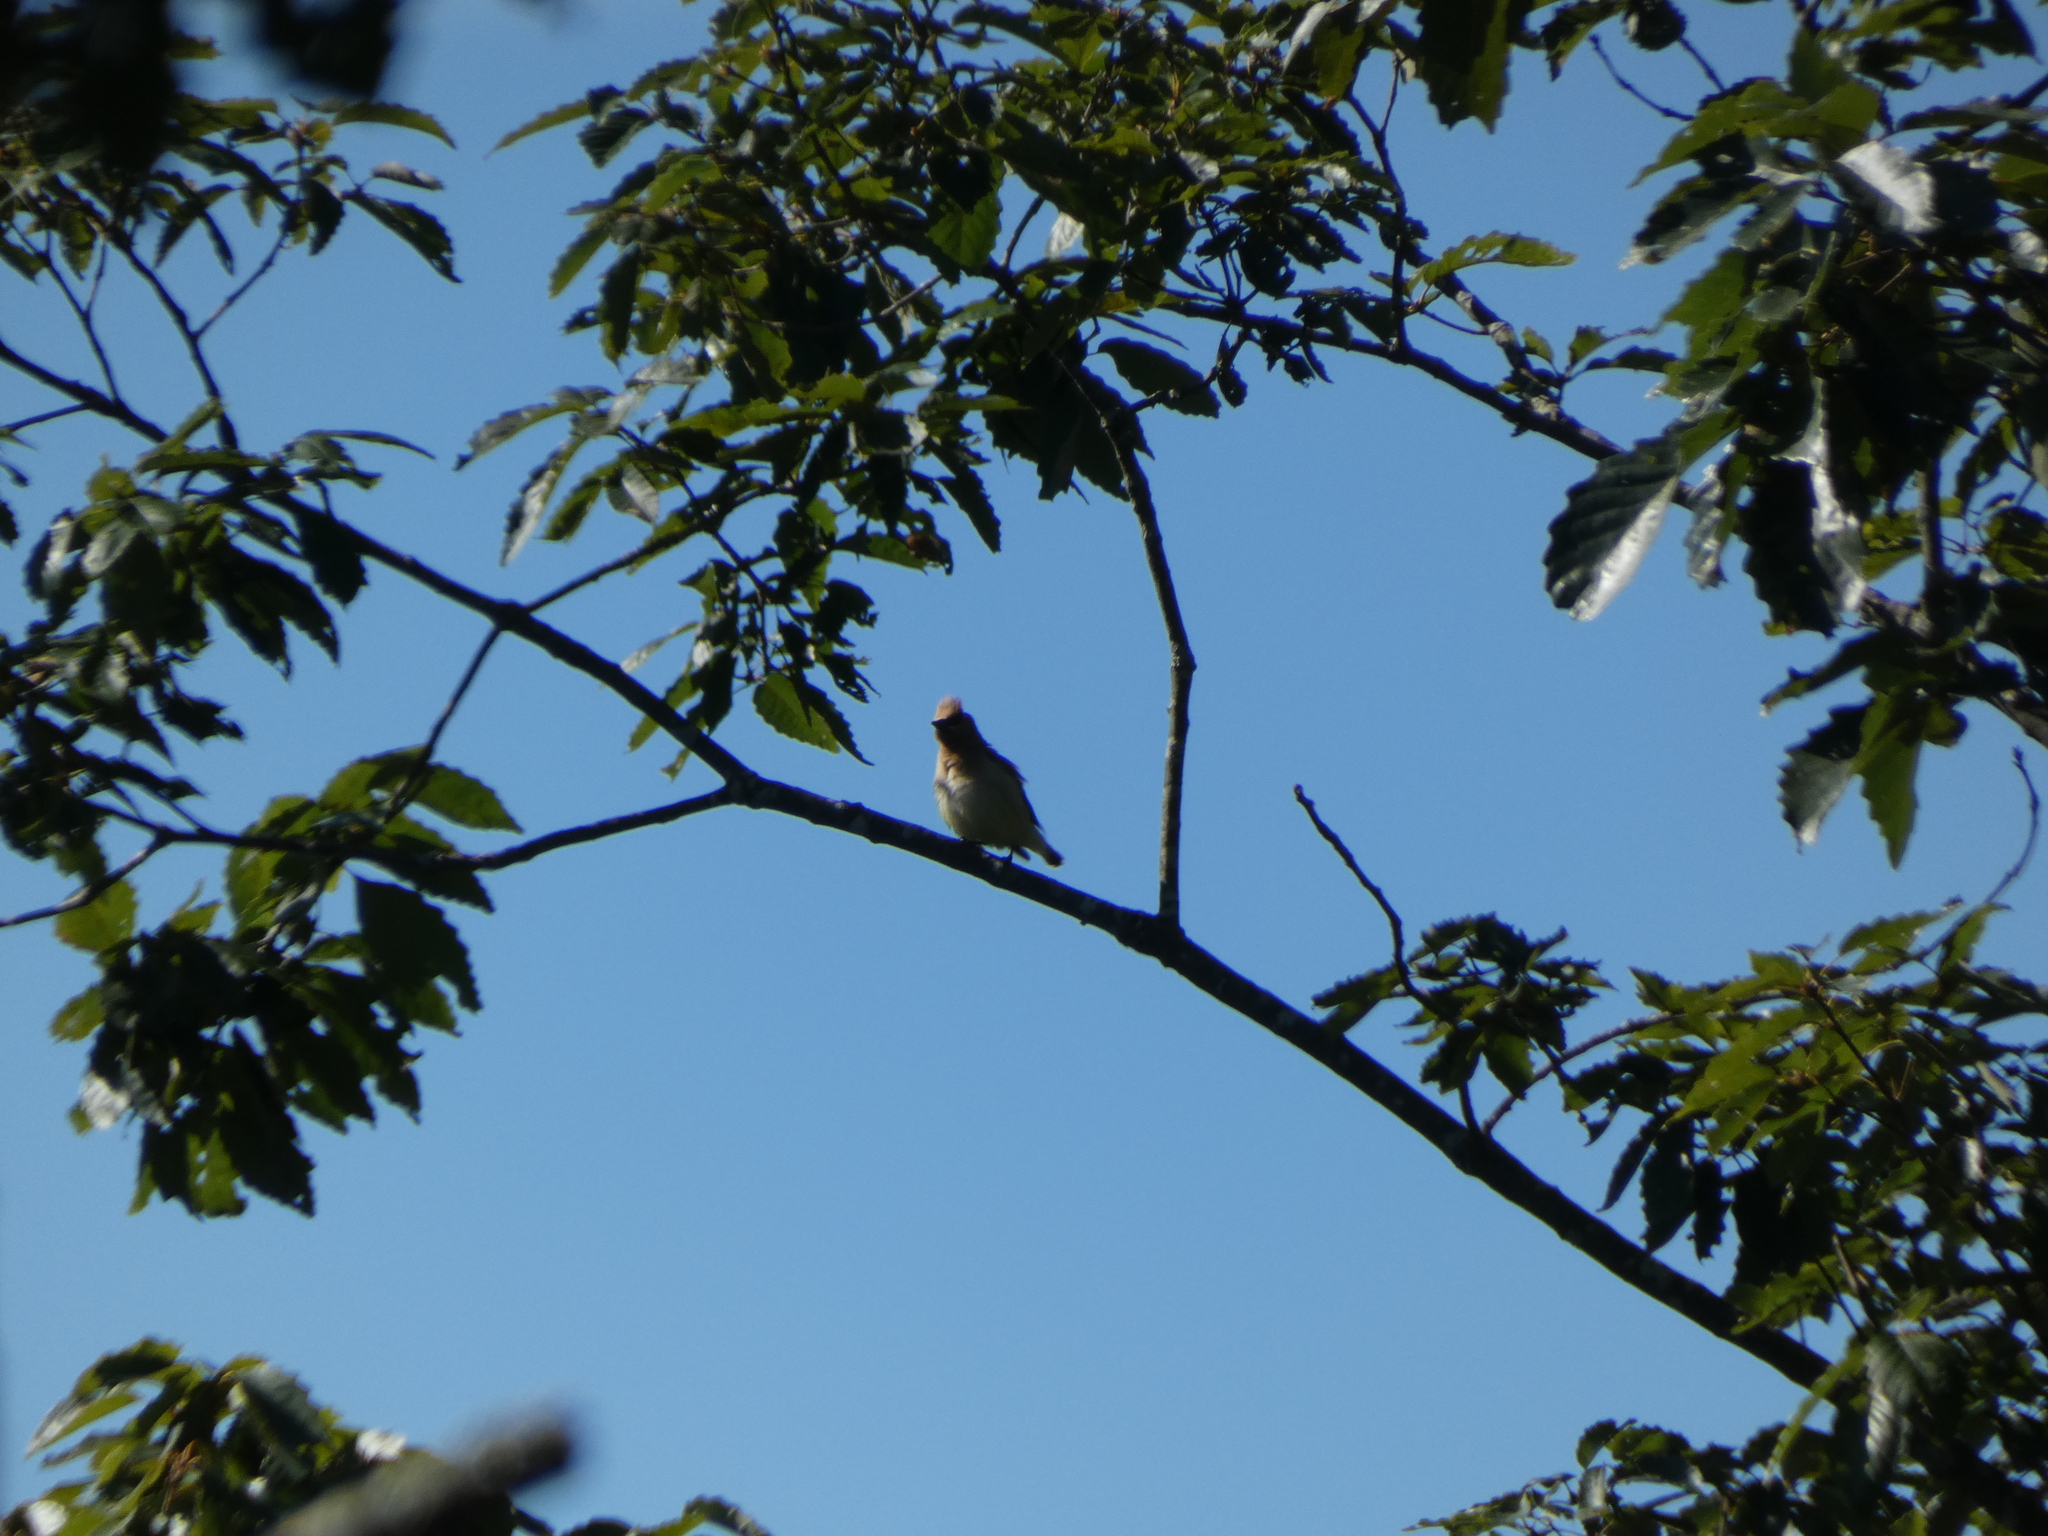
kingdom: Animalia
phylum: Chordata
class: Aves
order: Passeriformes
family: Bombycillidae
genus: Bombycilla
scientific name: Bombycilla cedrorum
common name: Cedar waxwing
